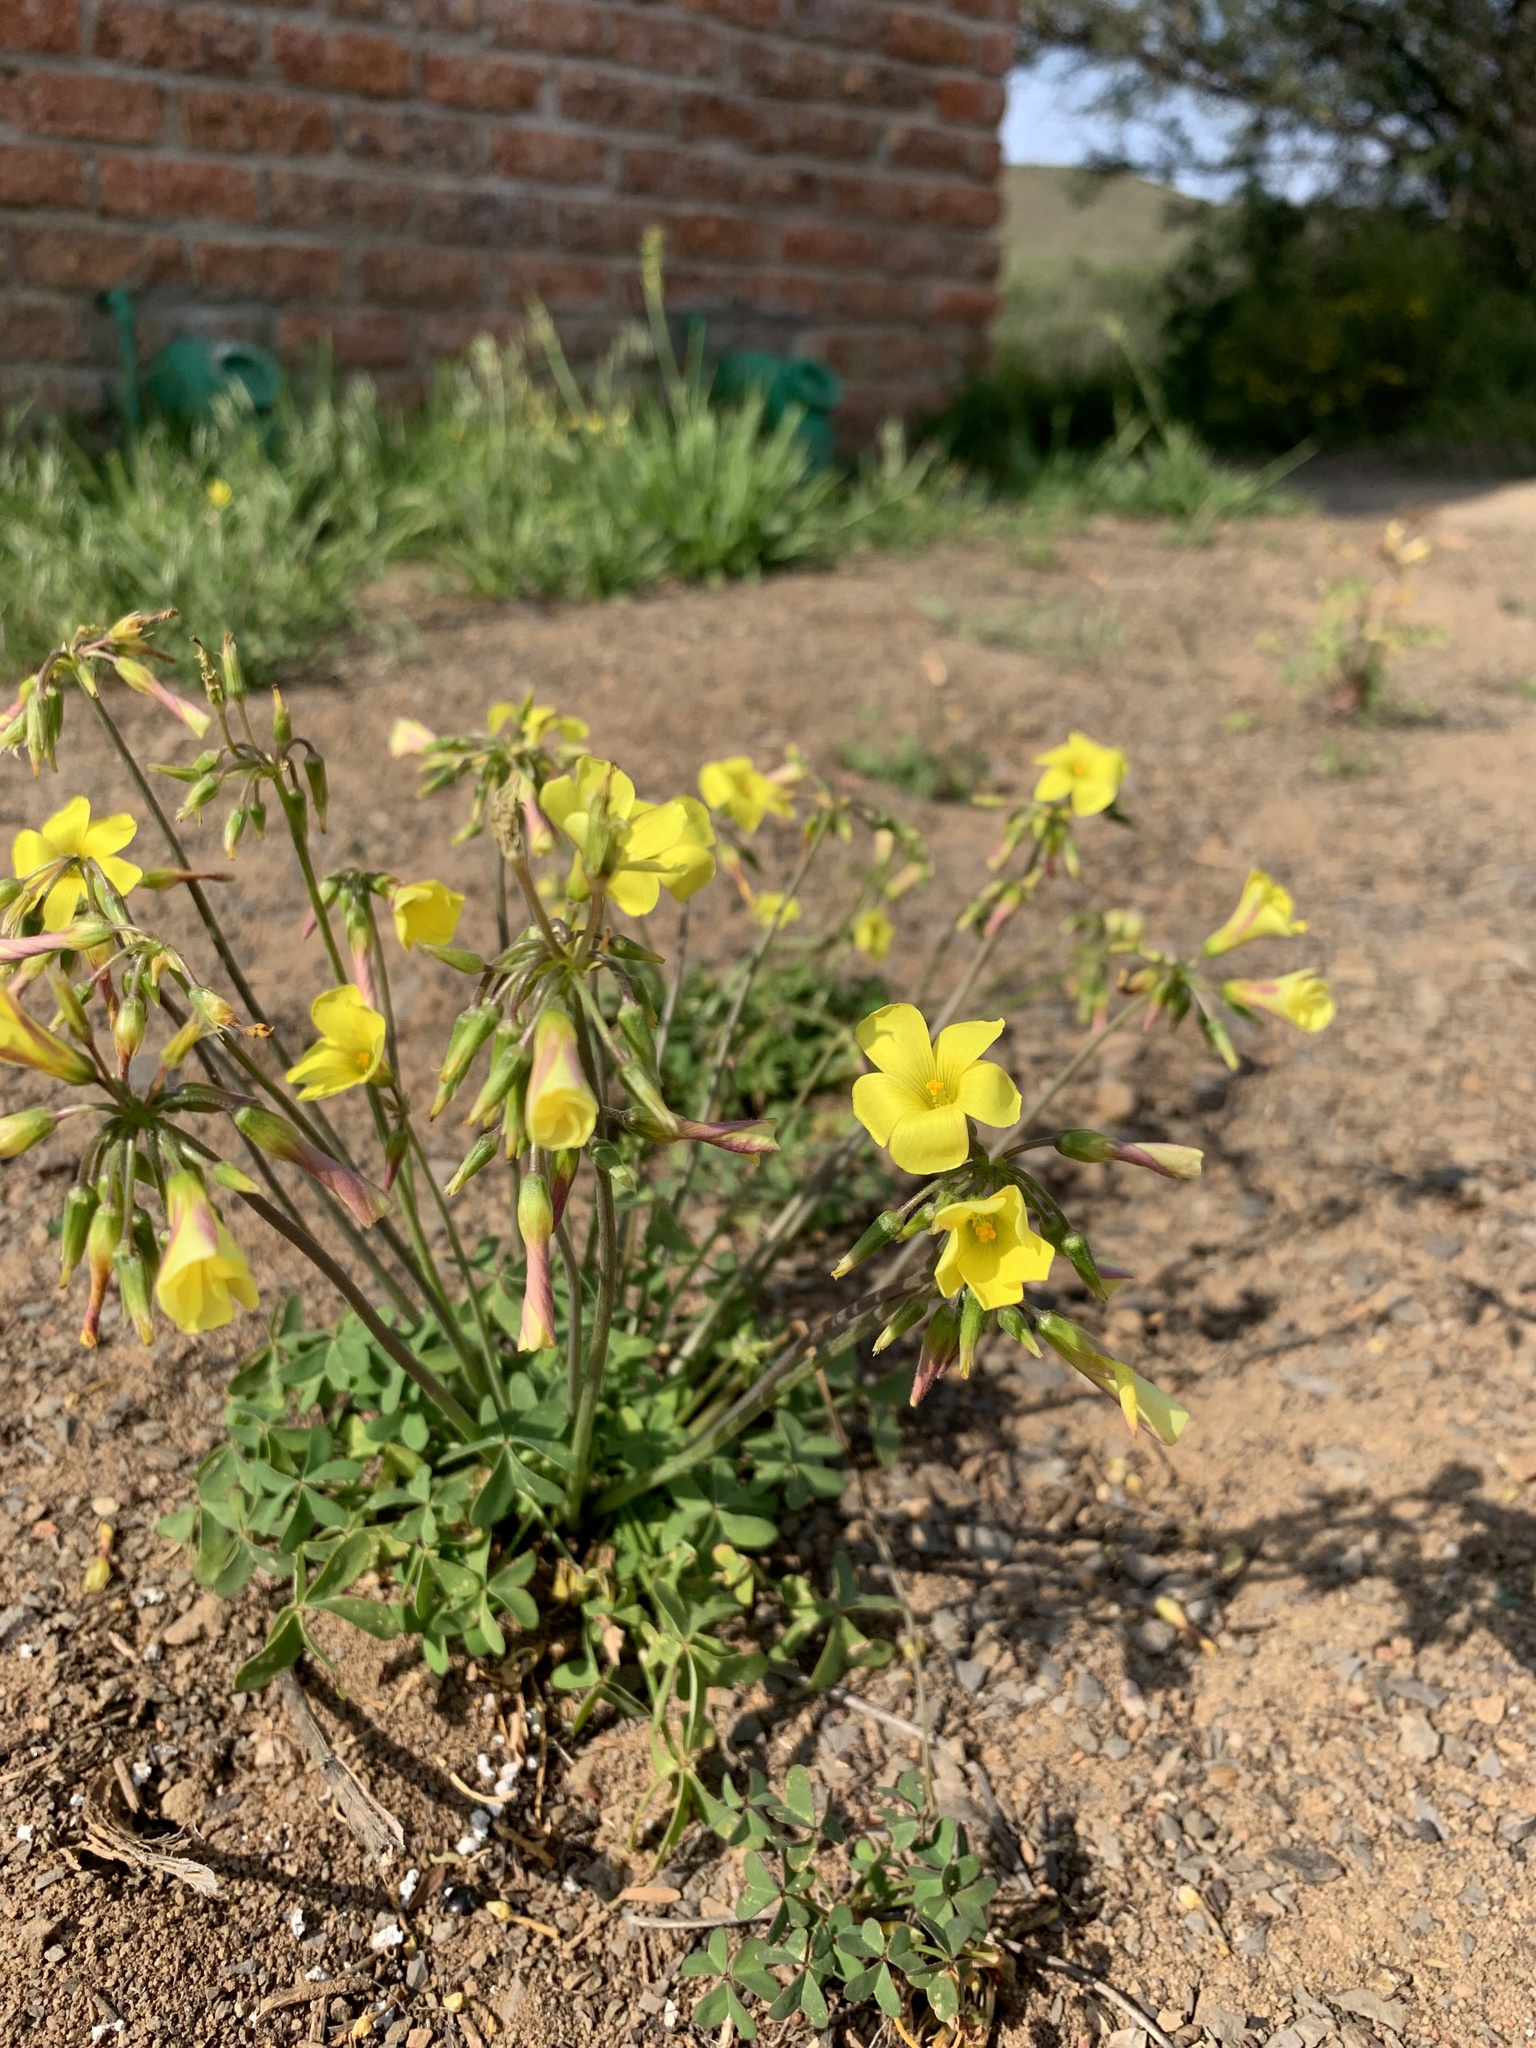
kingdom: Plantae
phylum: Tracheophyta
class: Magnoliopsida
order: Oxalidales
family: Oxalidaceae
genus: Oxalis
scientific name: Oxalis pes-caprae
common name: Bermuda-buttercup
